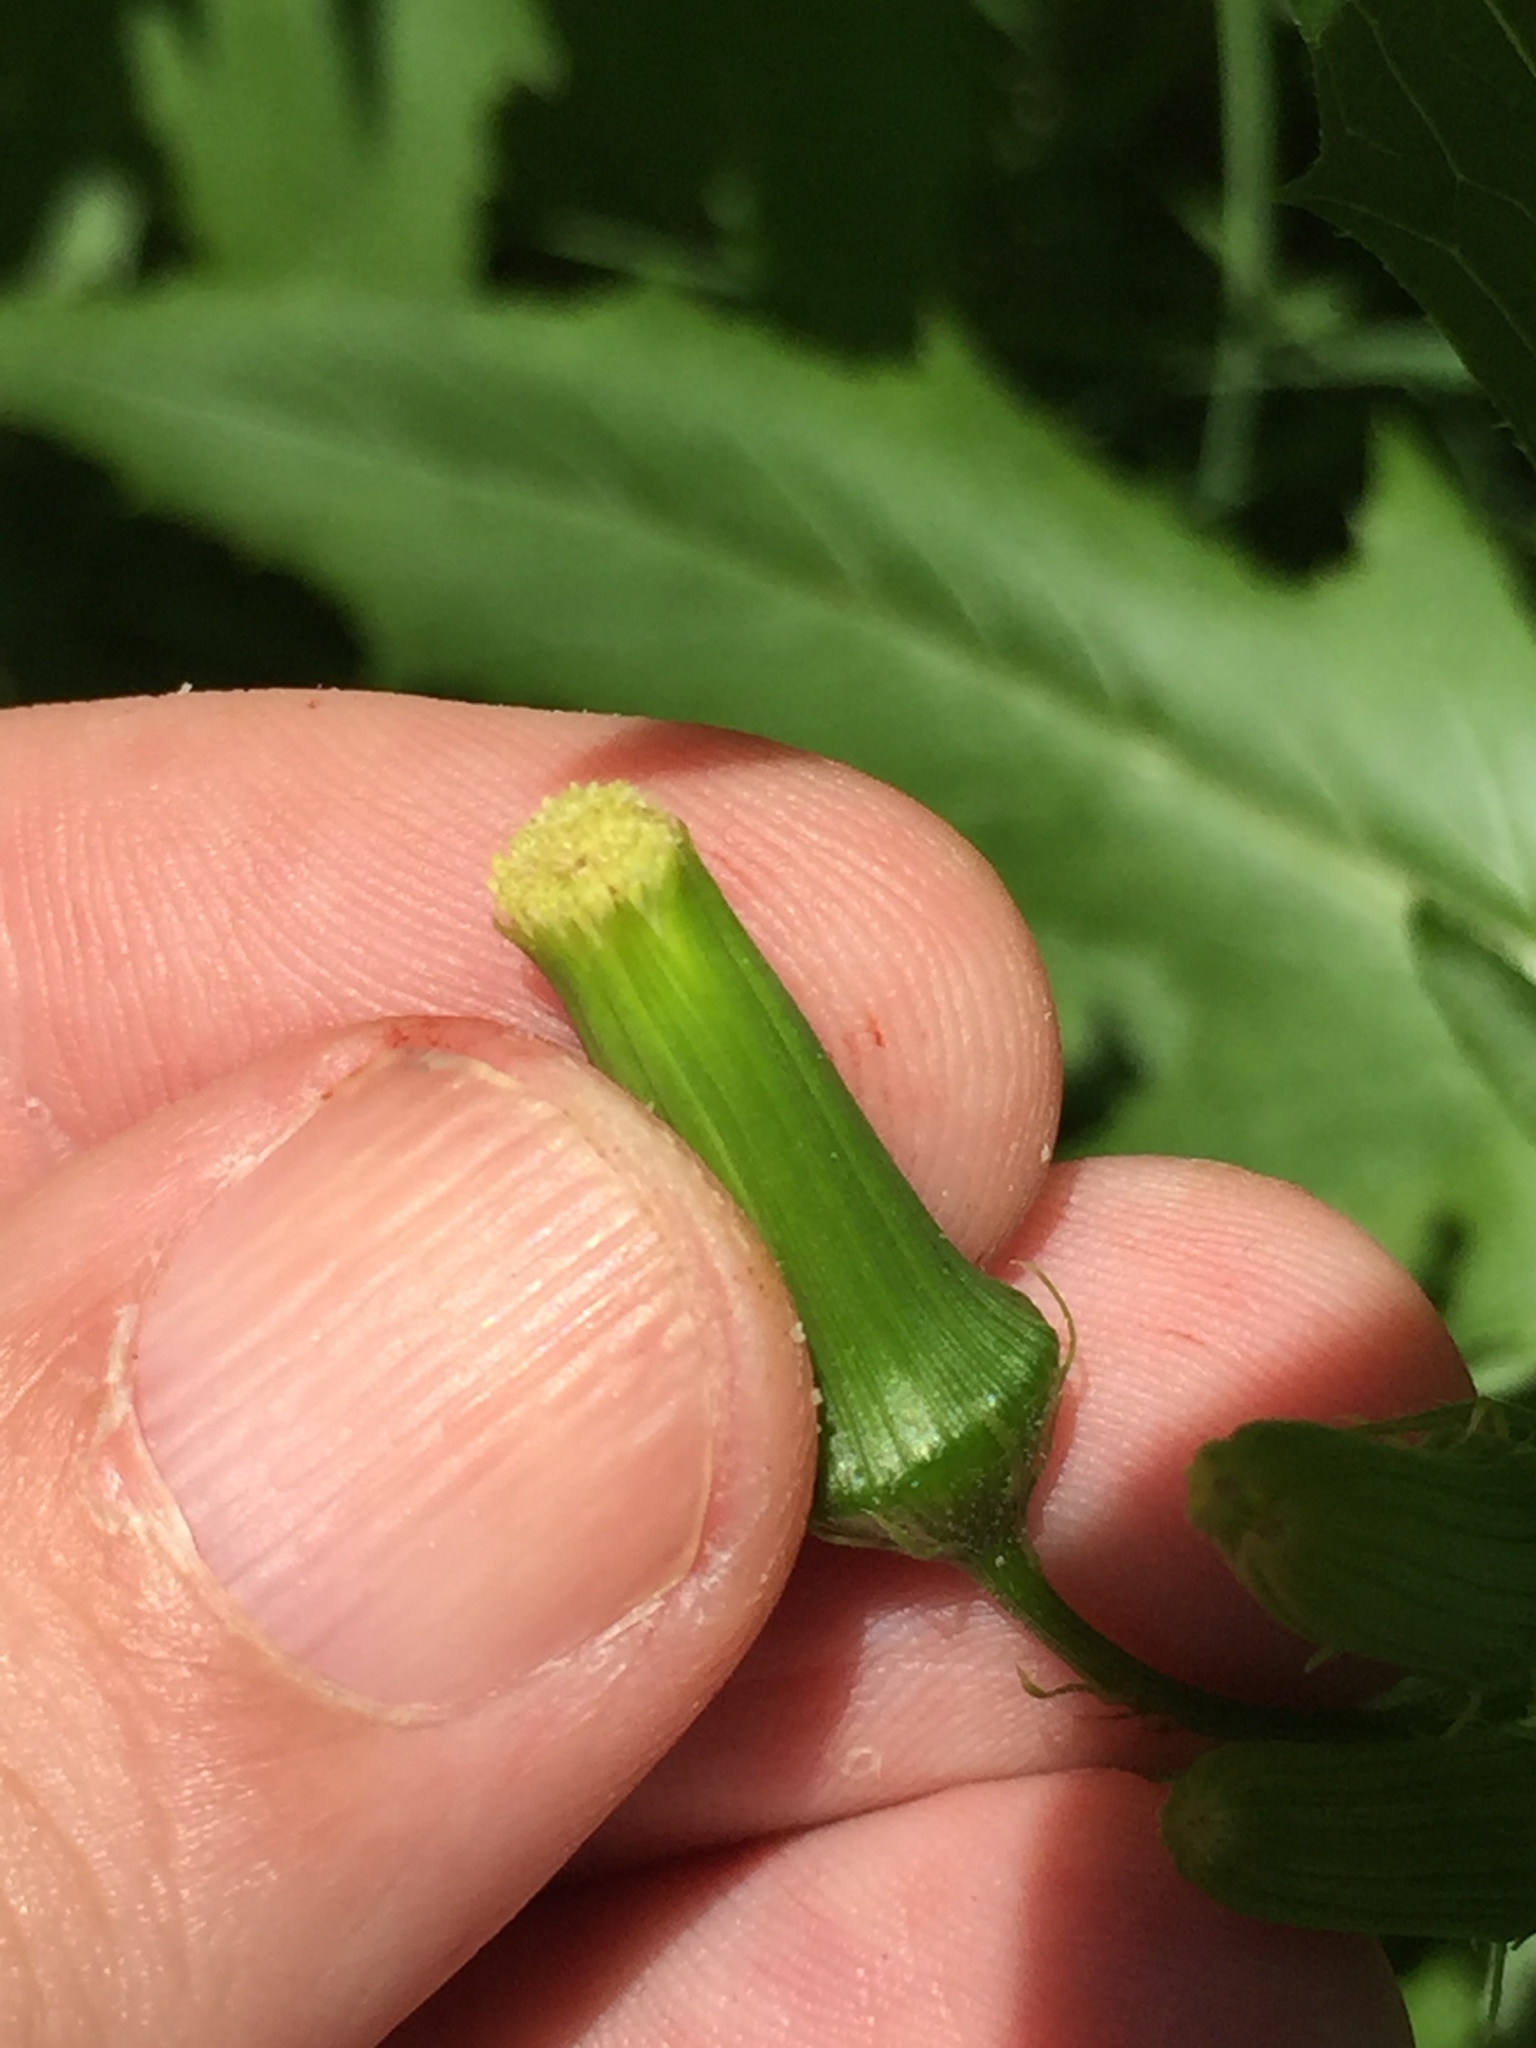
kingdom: Plantae
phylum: Tracheophyta
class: Magnoliopsida
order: Asterales
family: Asteraceae
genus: Erechtites
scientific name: Erechtites hieraciifolius
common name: American burnweed
